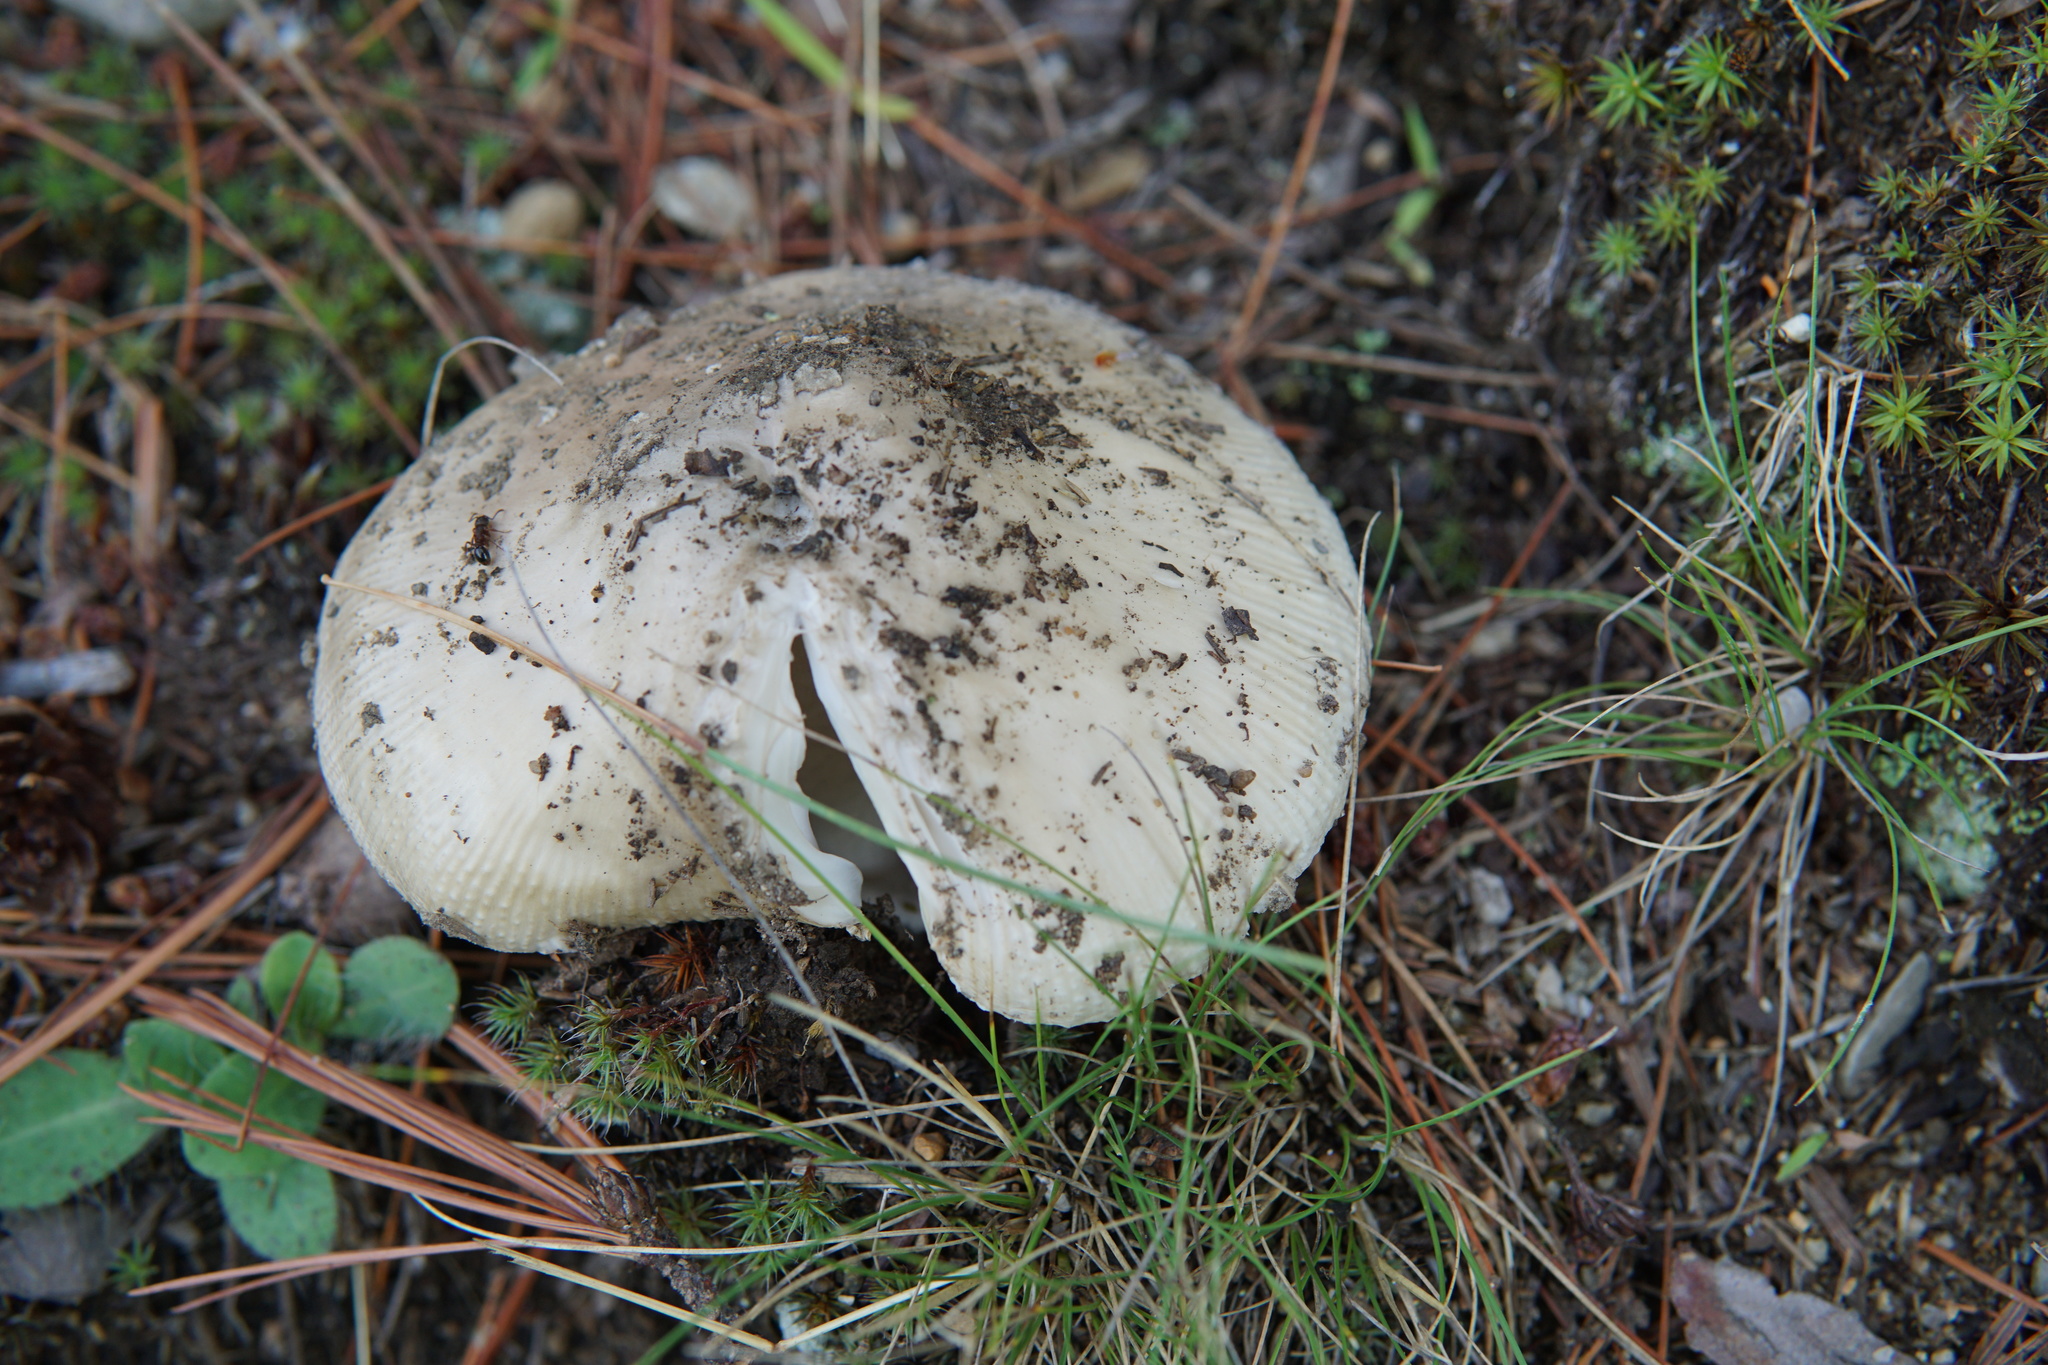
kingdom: Fungi
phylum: Basidiomycota
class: Agaricomycetes
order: Agaricales
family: Amanitaceae
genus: Amanita
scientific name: Amanita russuloides
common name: Russula-like amanita
